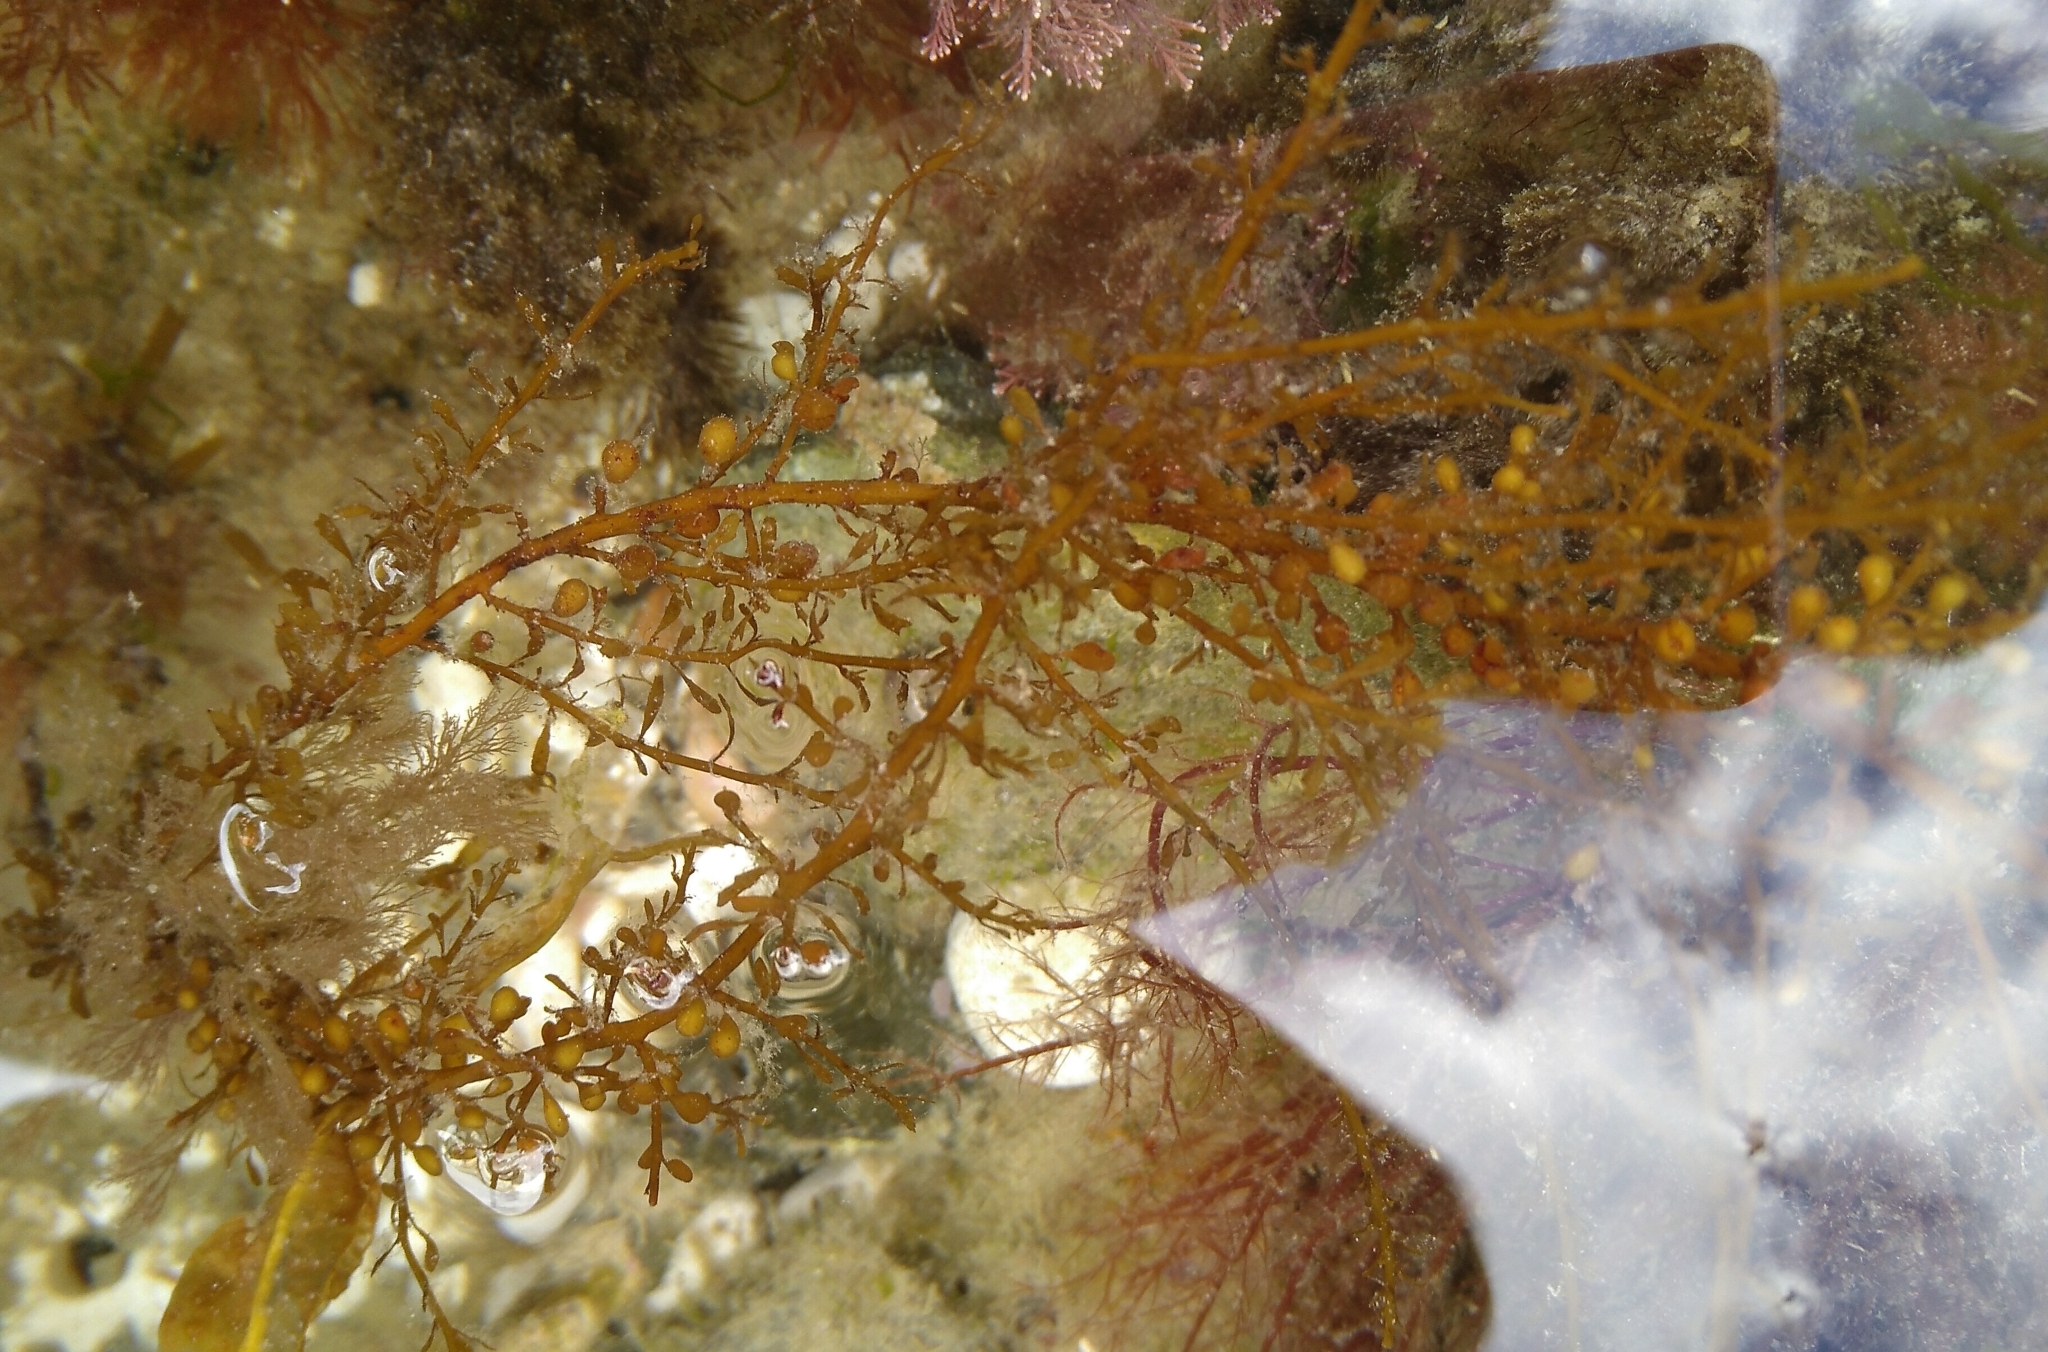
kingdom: Chromista
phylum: Ochrophyta
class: Phaeophyceae
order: Fucales
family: Sargassaceae
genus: Sargassum
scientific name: Sargassum muticum
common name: Japweed
